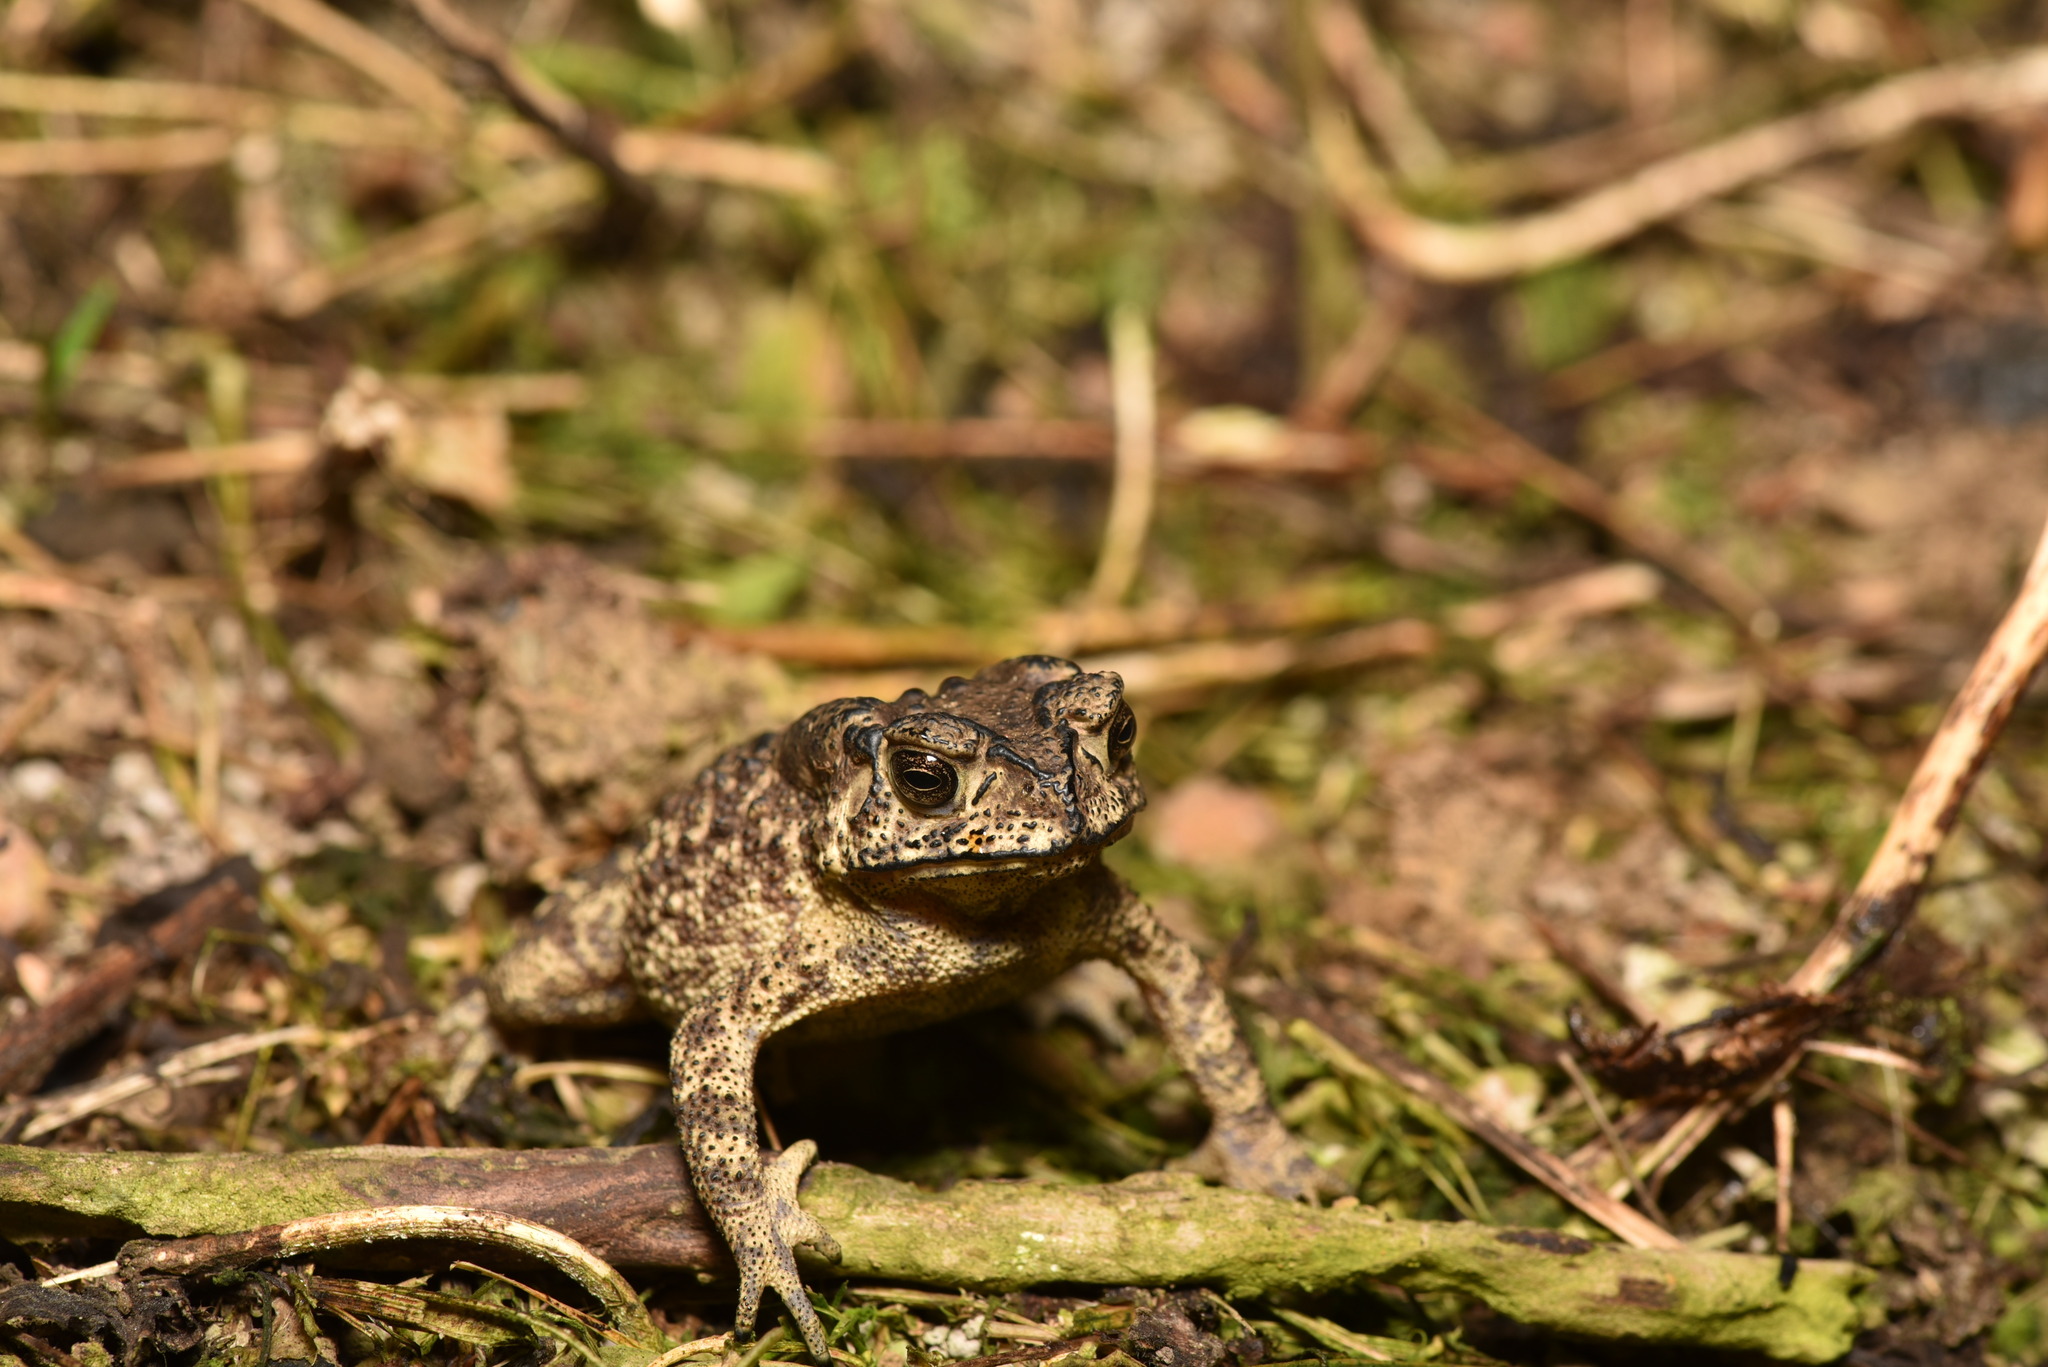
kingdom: Animalia
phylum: Chordata
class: Amphibia
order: Anura
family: Bufonidae
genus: Duttaphrynus
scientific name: Duttaphrynus melanostictus
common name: Common sunda toad
